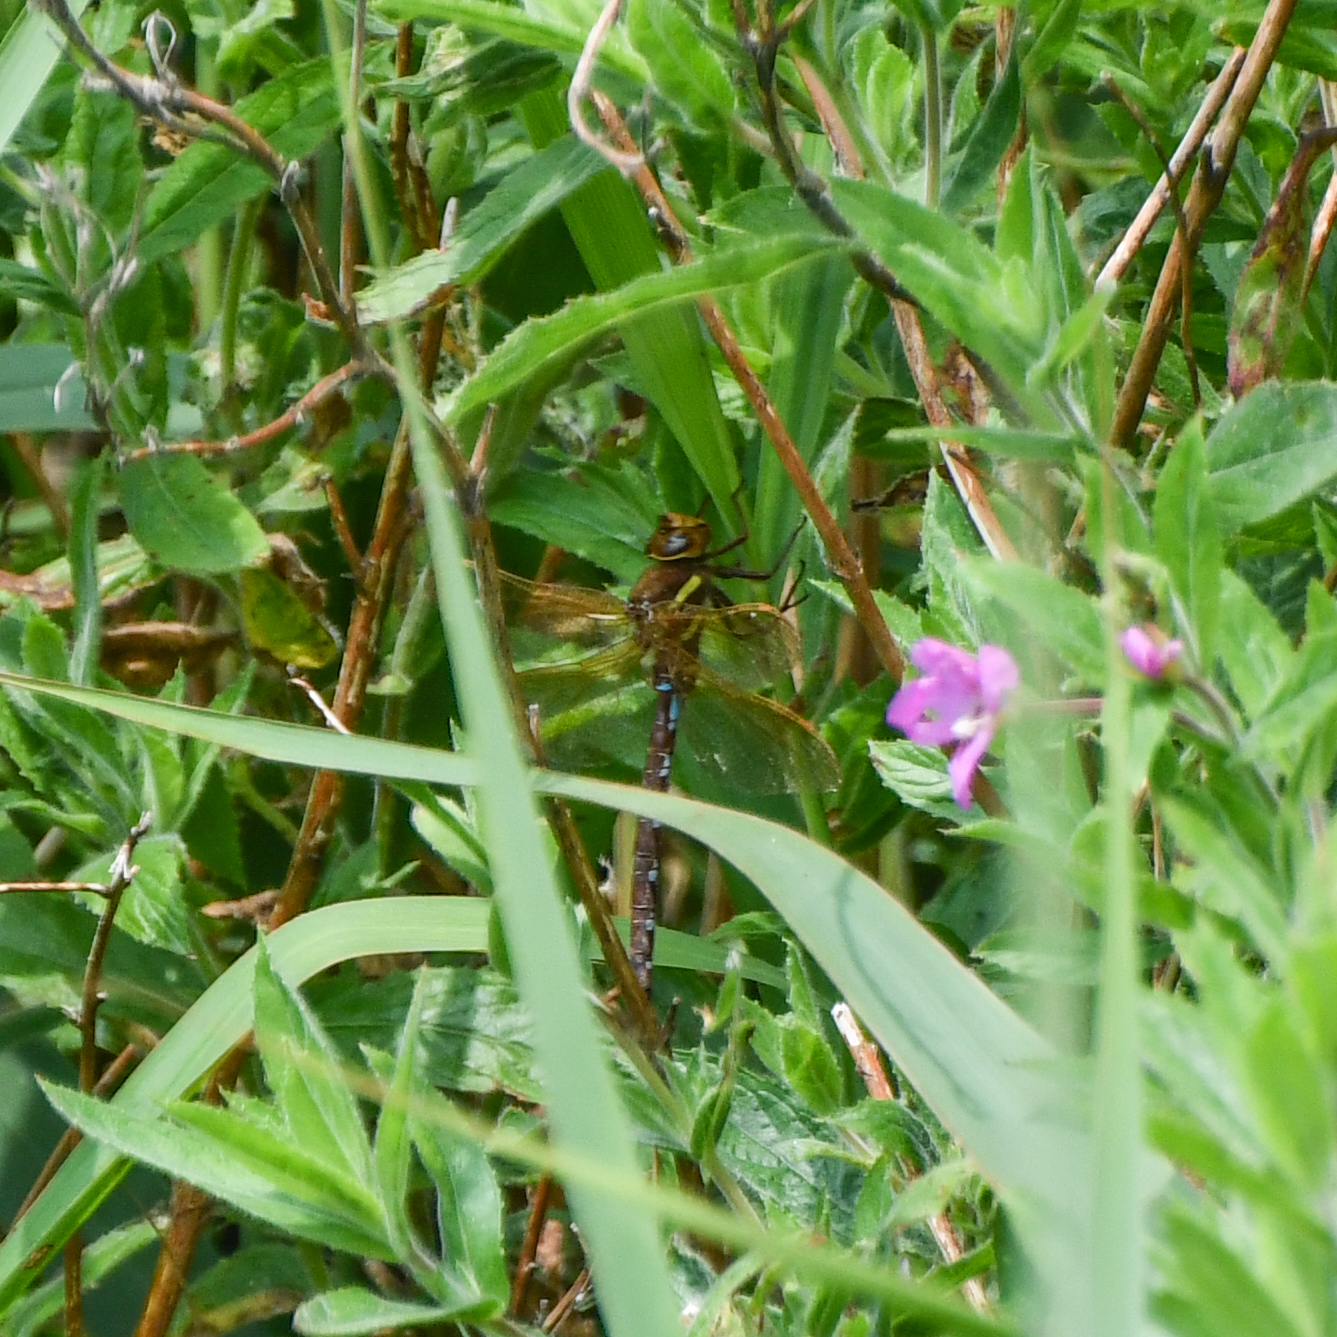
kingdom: Animalia
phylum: Arthropoda
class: Insecta
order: Odonata
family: Aeshnidae
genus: Aeshna
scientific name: Aeshna grandis
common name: Brown hawker
